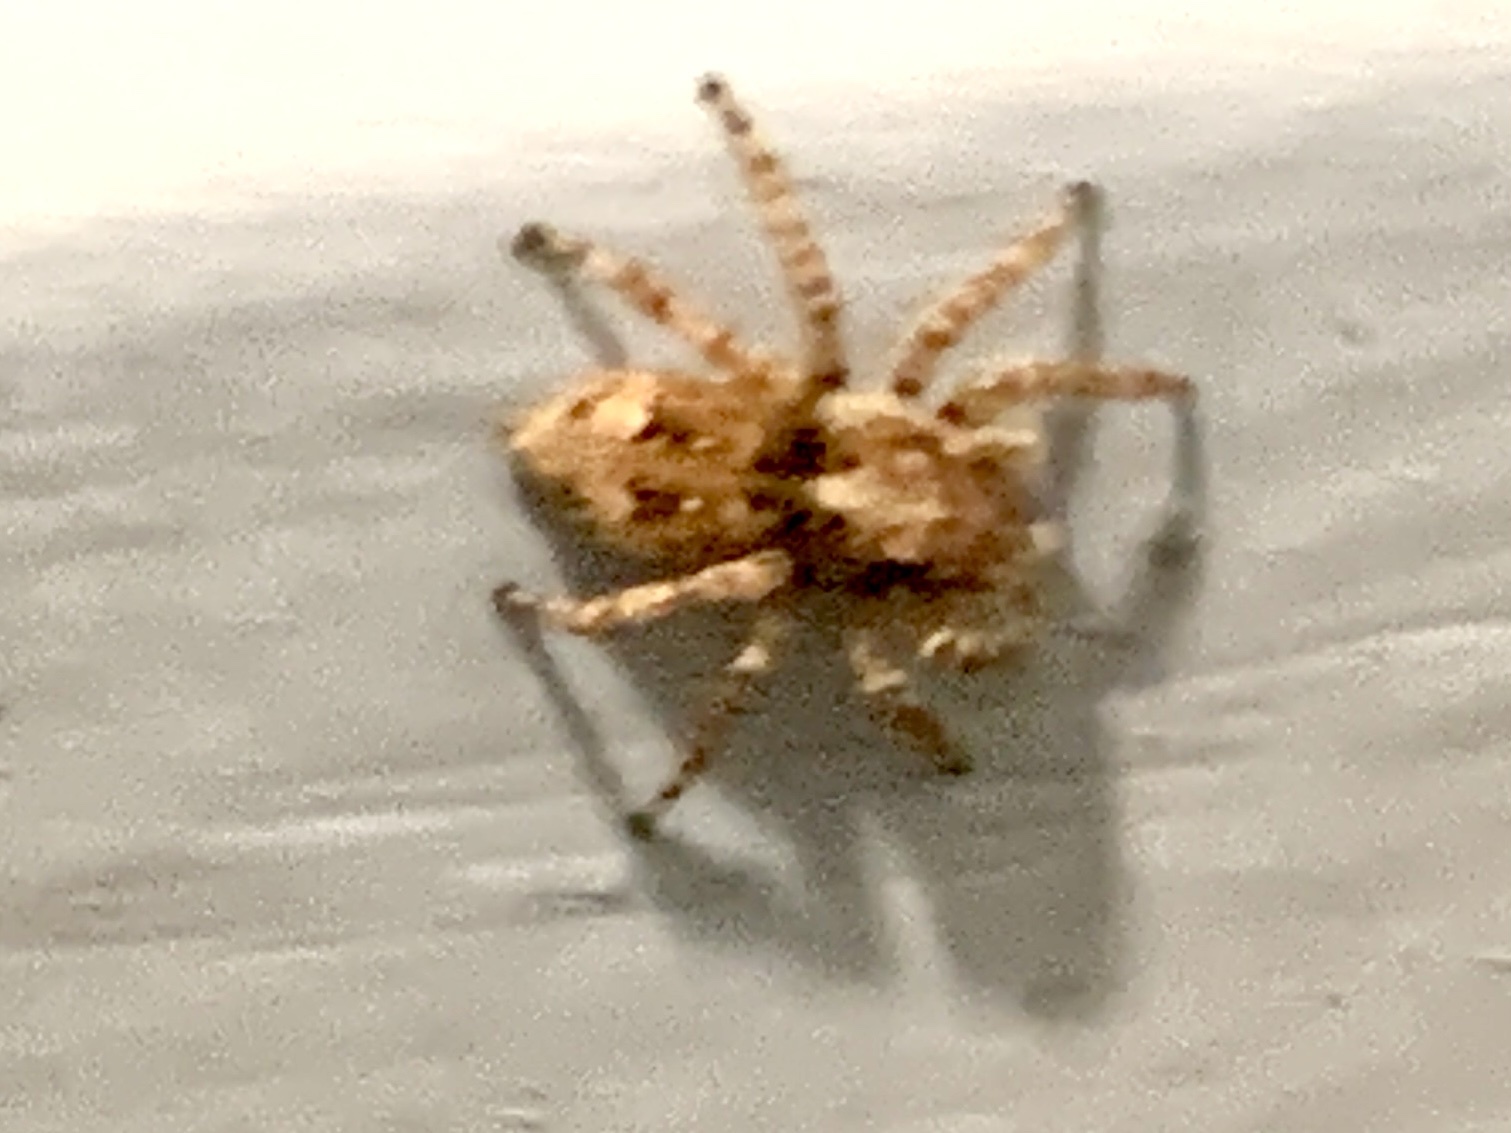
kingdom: Animalia
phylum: Arthropoda
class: Arachnida
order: Araneae
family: Salticidae
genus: Attulus
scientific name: Attulus fasciger
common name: Asiatic wall jumping spider
